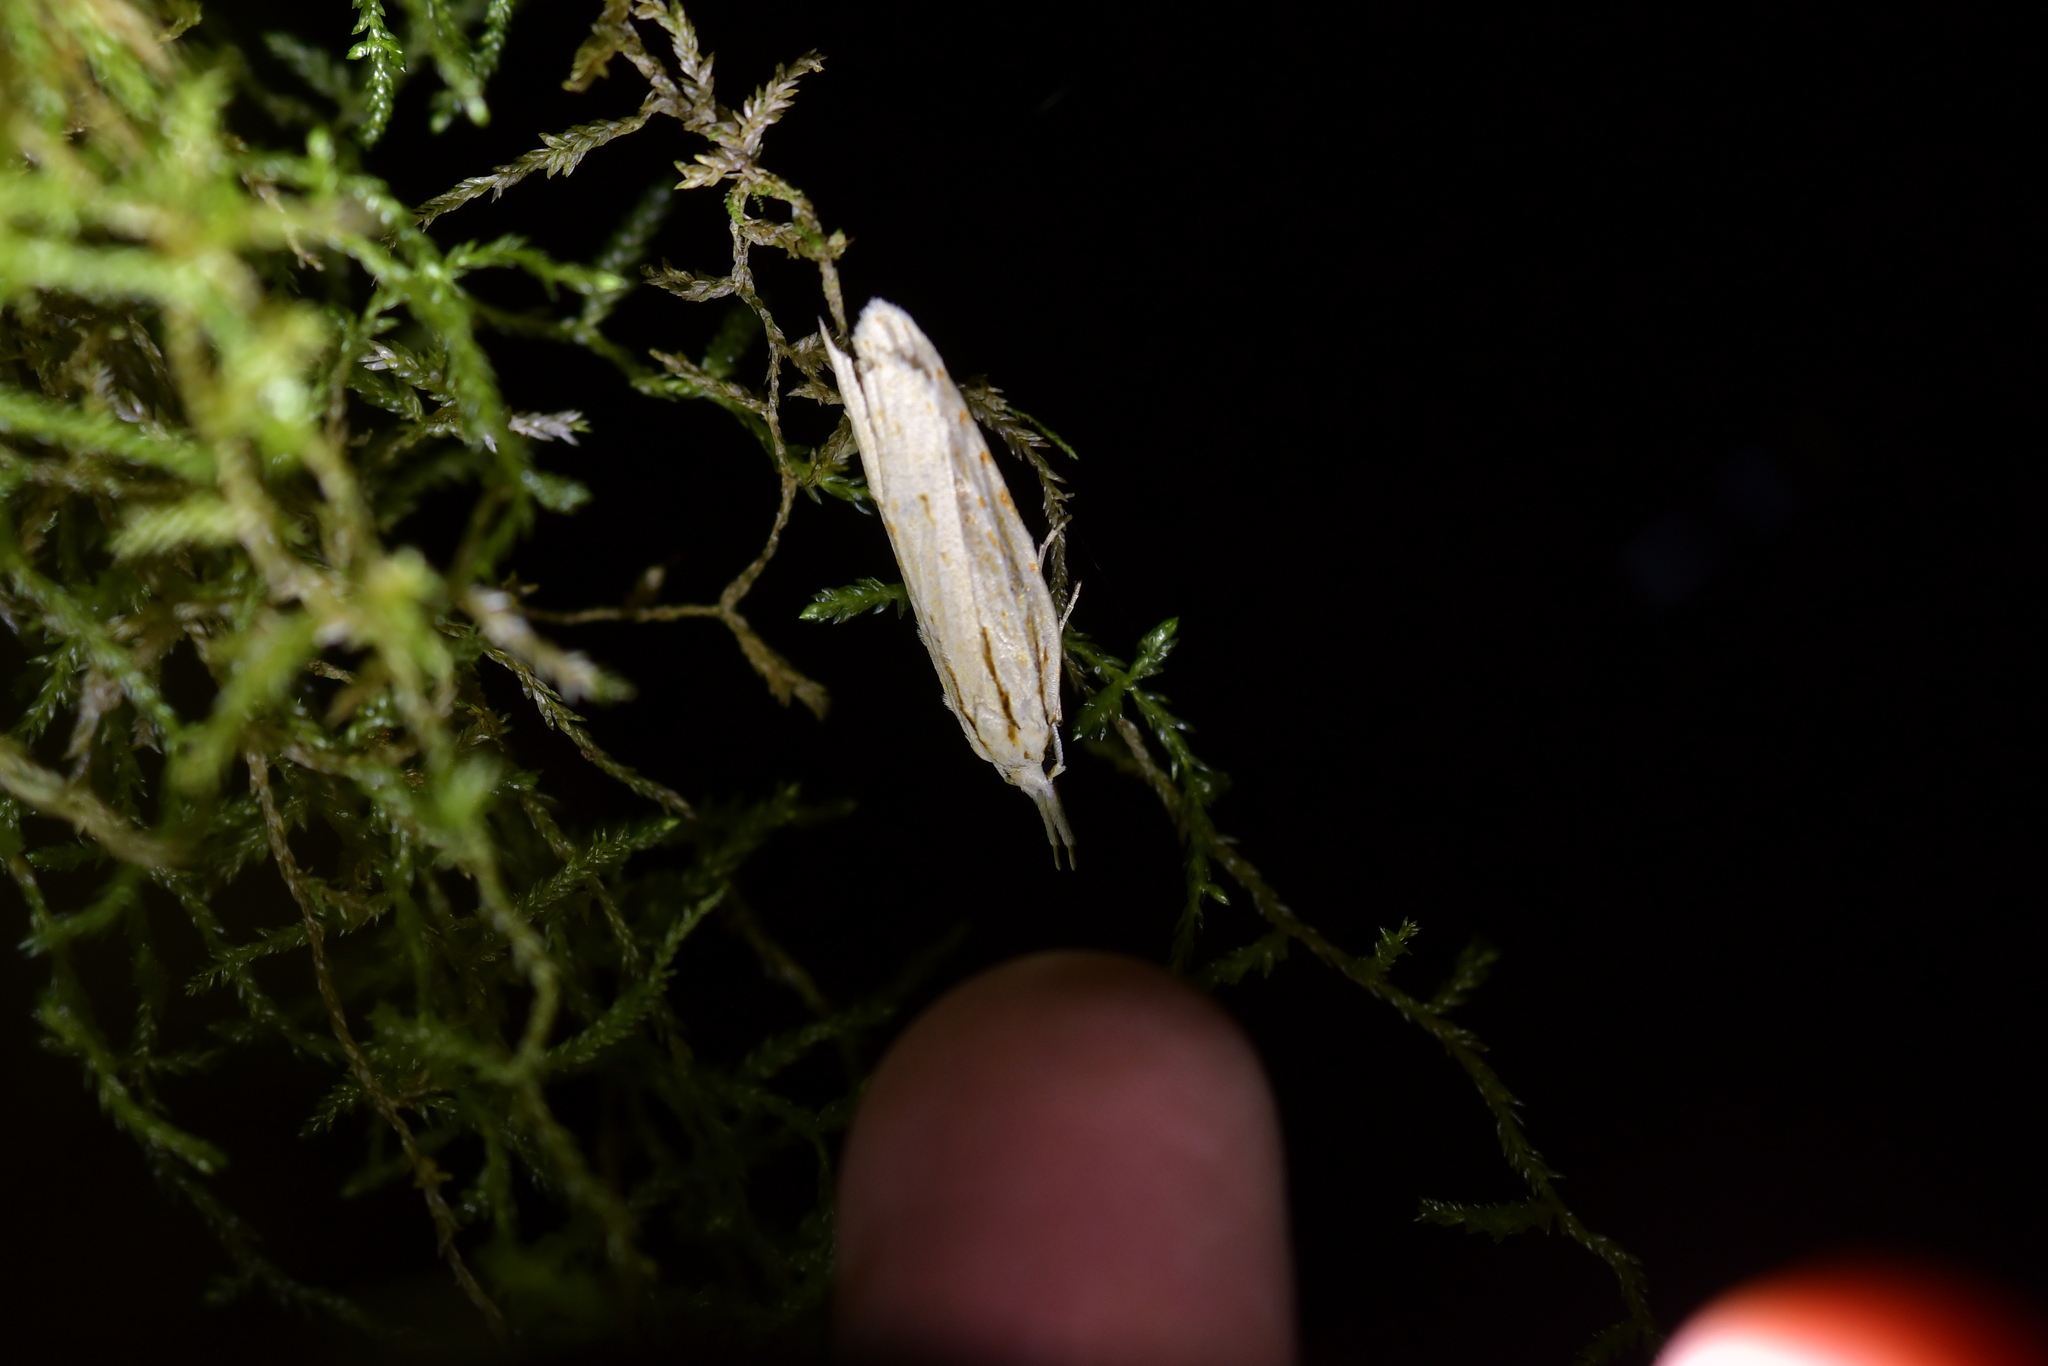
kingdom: Animalia
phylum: Arthropoda
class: Insecta
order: Lepidoptera
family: Carposinidae
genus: Ctenarchis
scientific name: Ctenarchis cramboides
